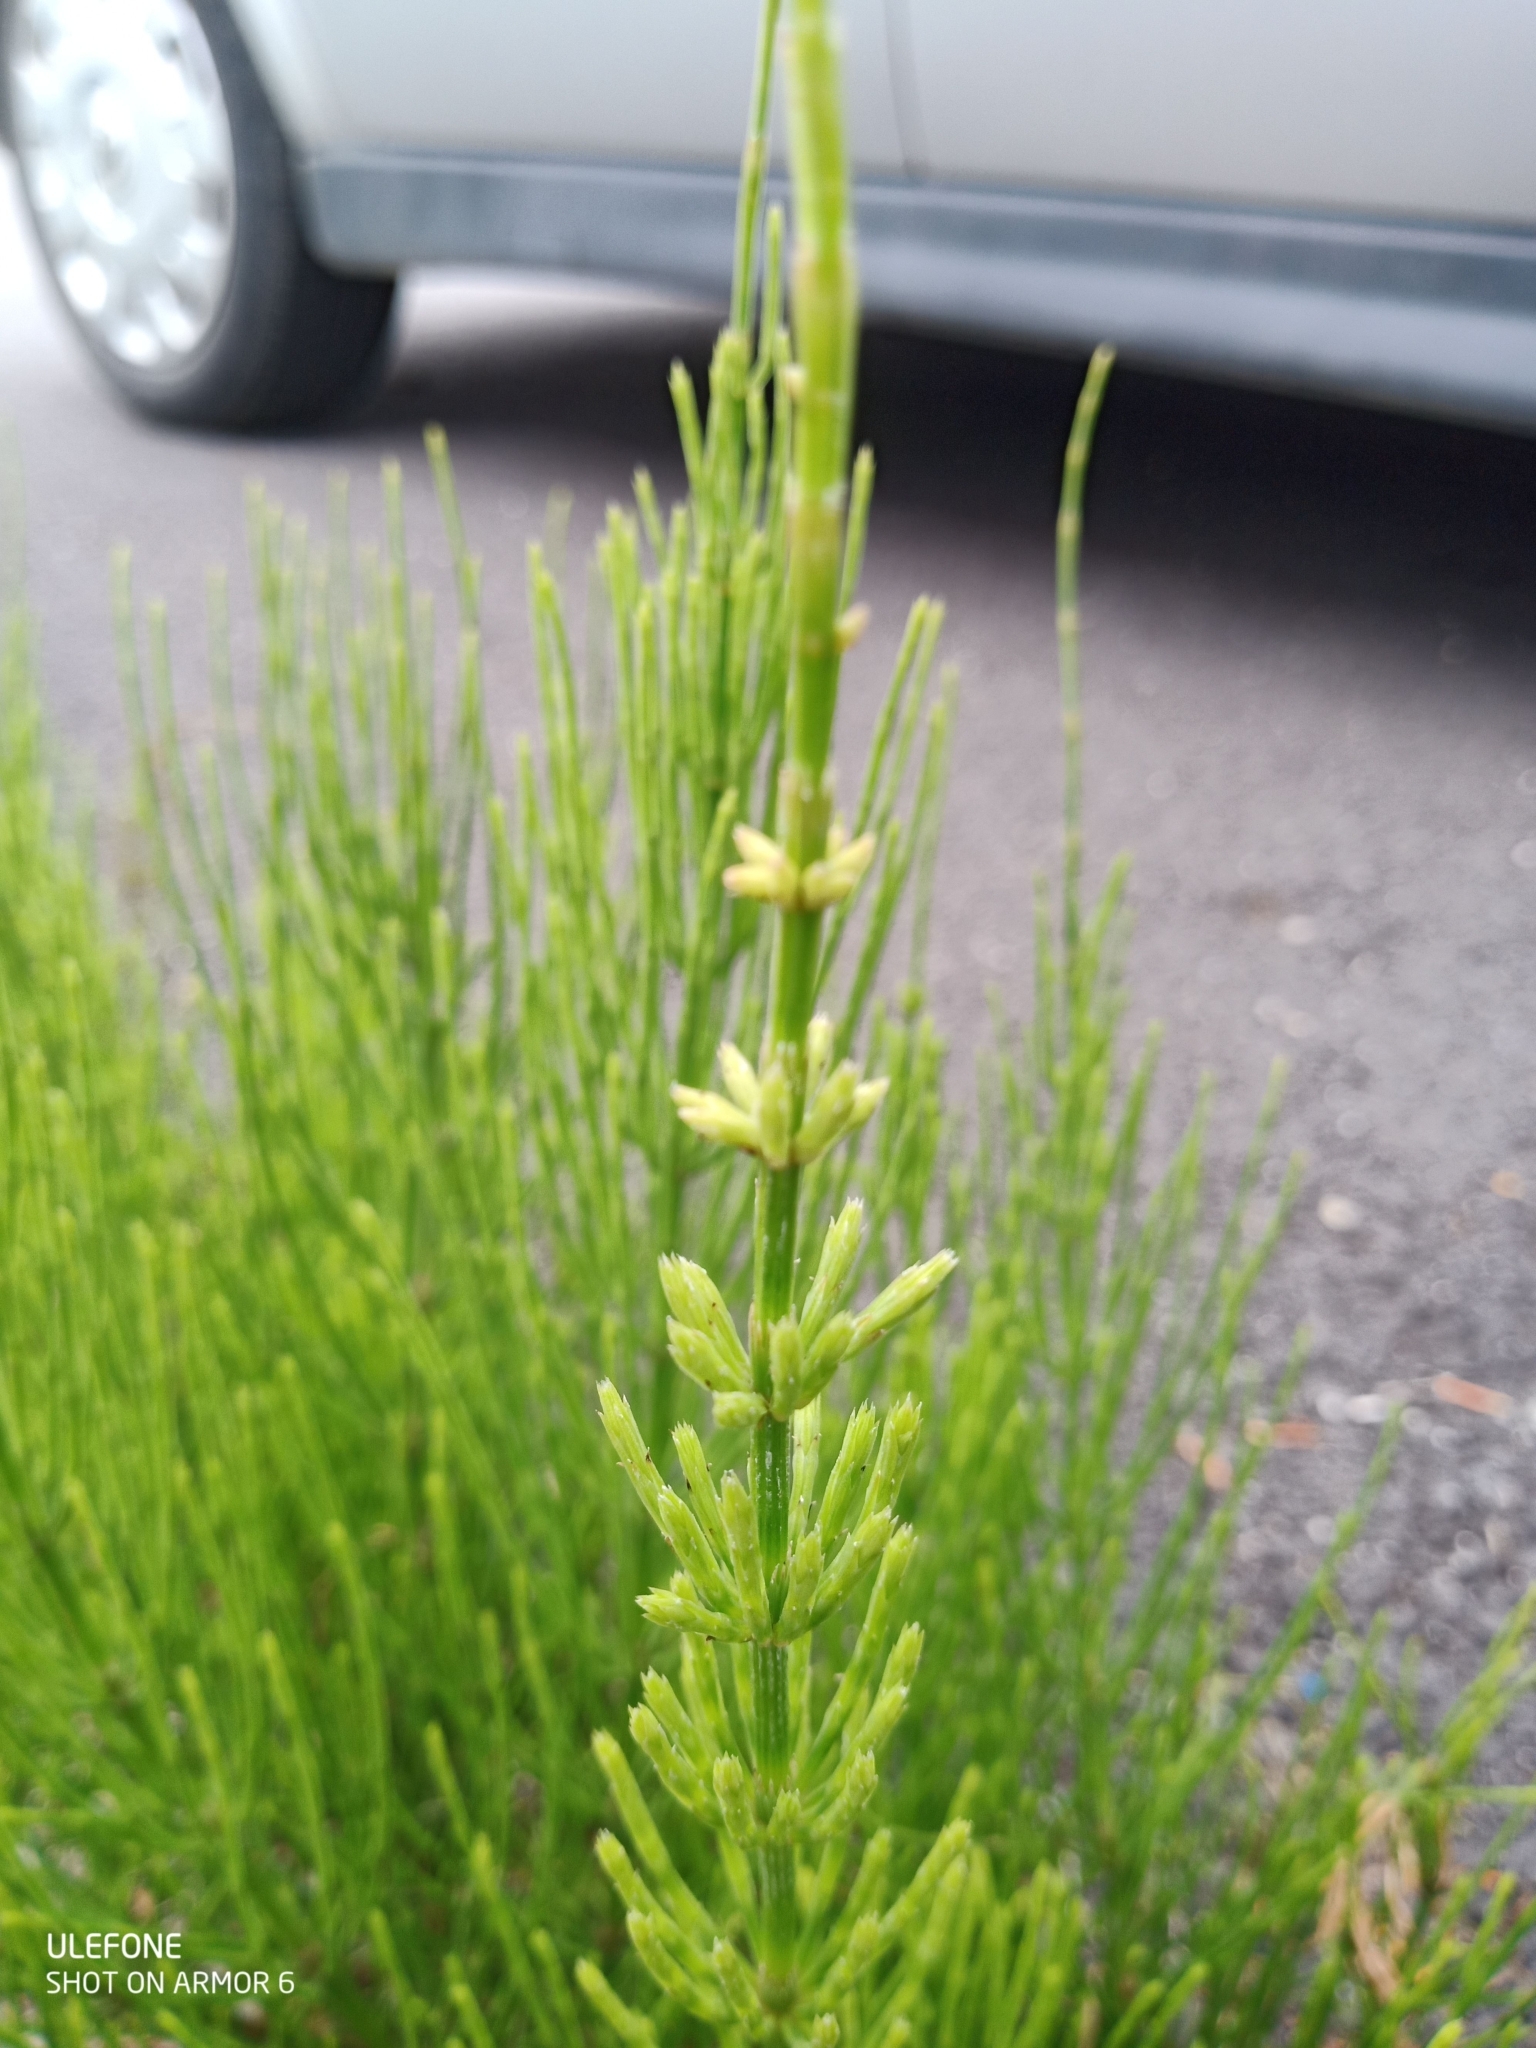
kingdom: Plantae
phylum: Tracheophyta
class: Polypodiopsida
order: Equisetales
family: Equisetaceae
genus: Equisetum
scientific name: Equisetum arvense
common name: Field horsetail
